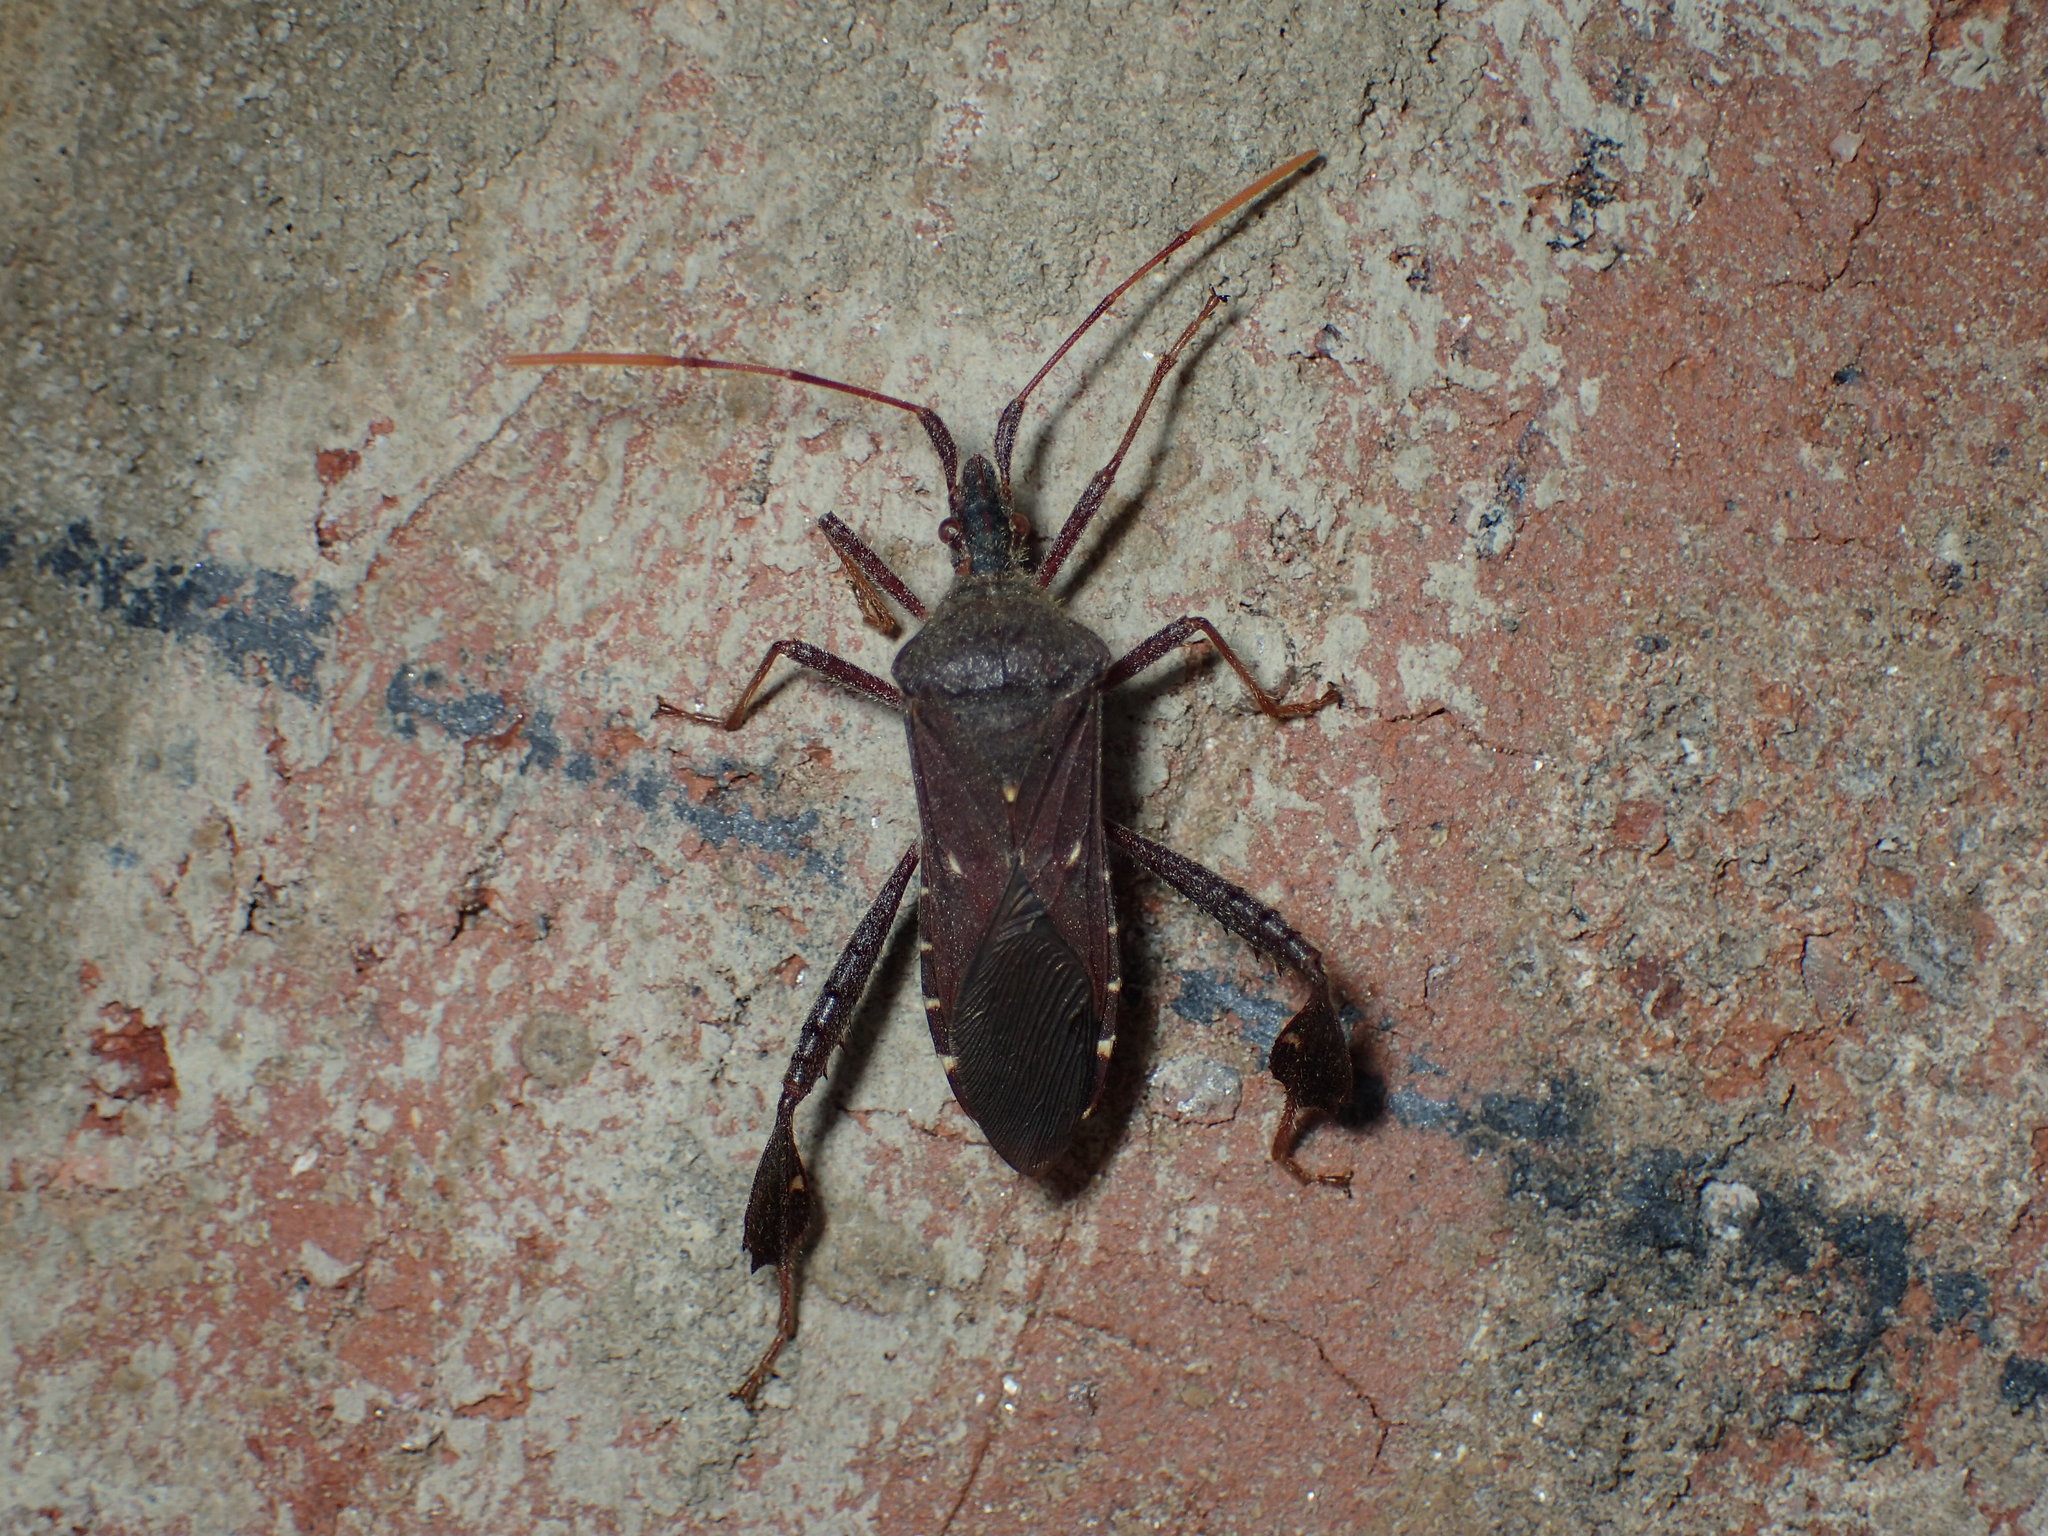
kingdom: Animalia
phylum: Arthropoda
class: Insecta
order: Hemiptera
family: Coreidae
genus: Leptoglossus
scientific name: Leptoglossus oppositus
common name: Northern leaf-footed bug
